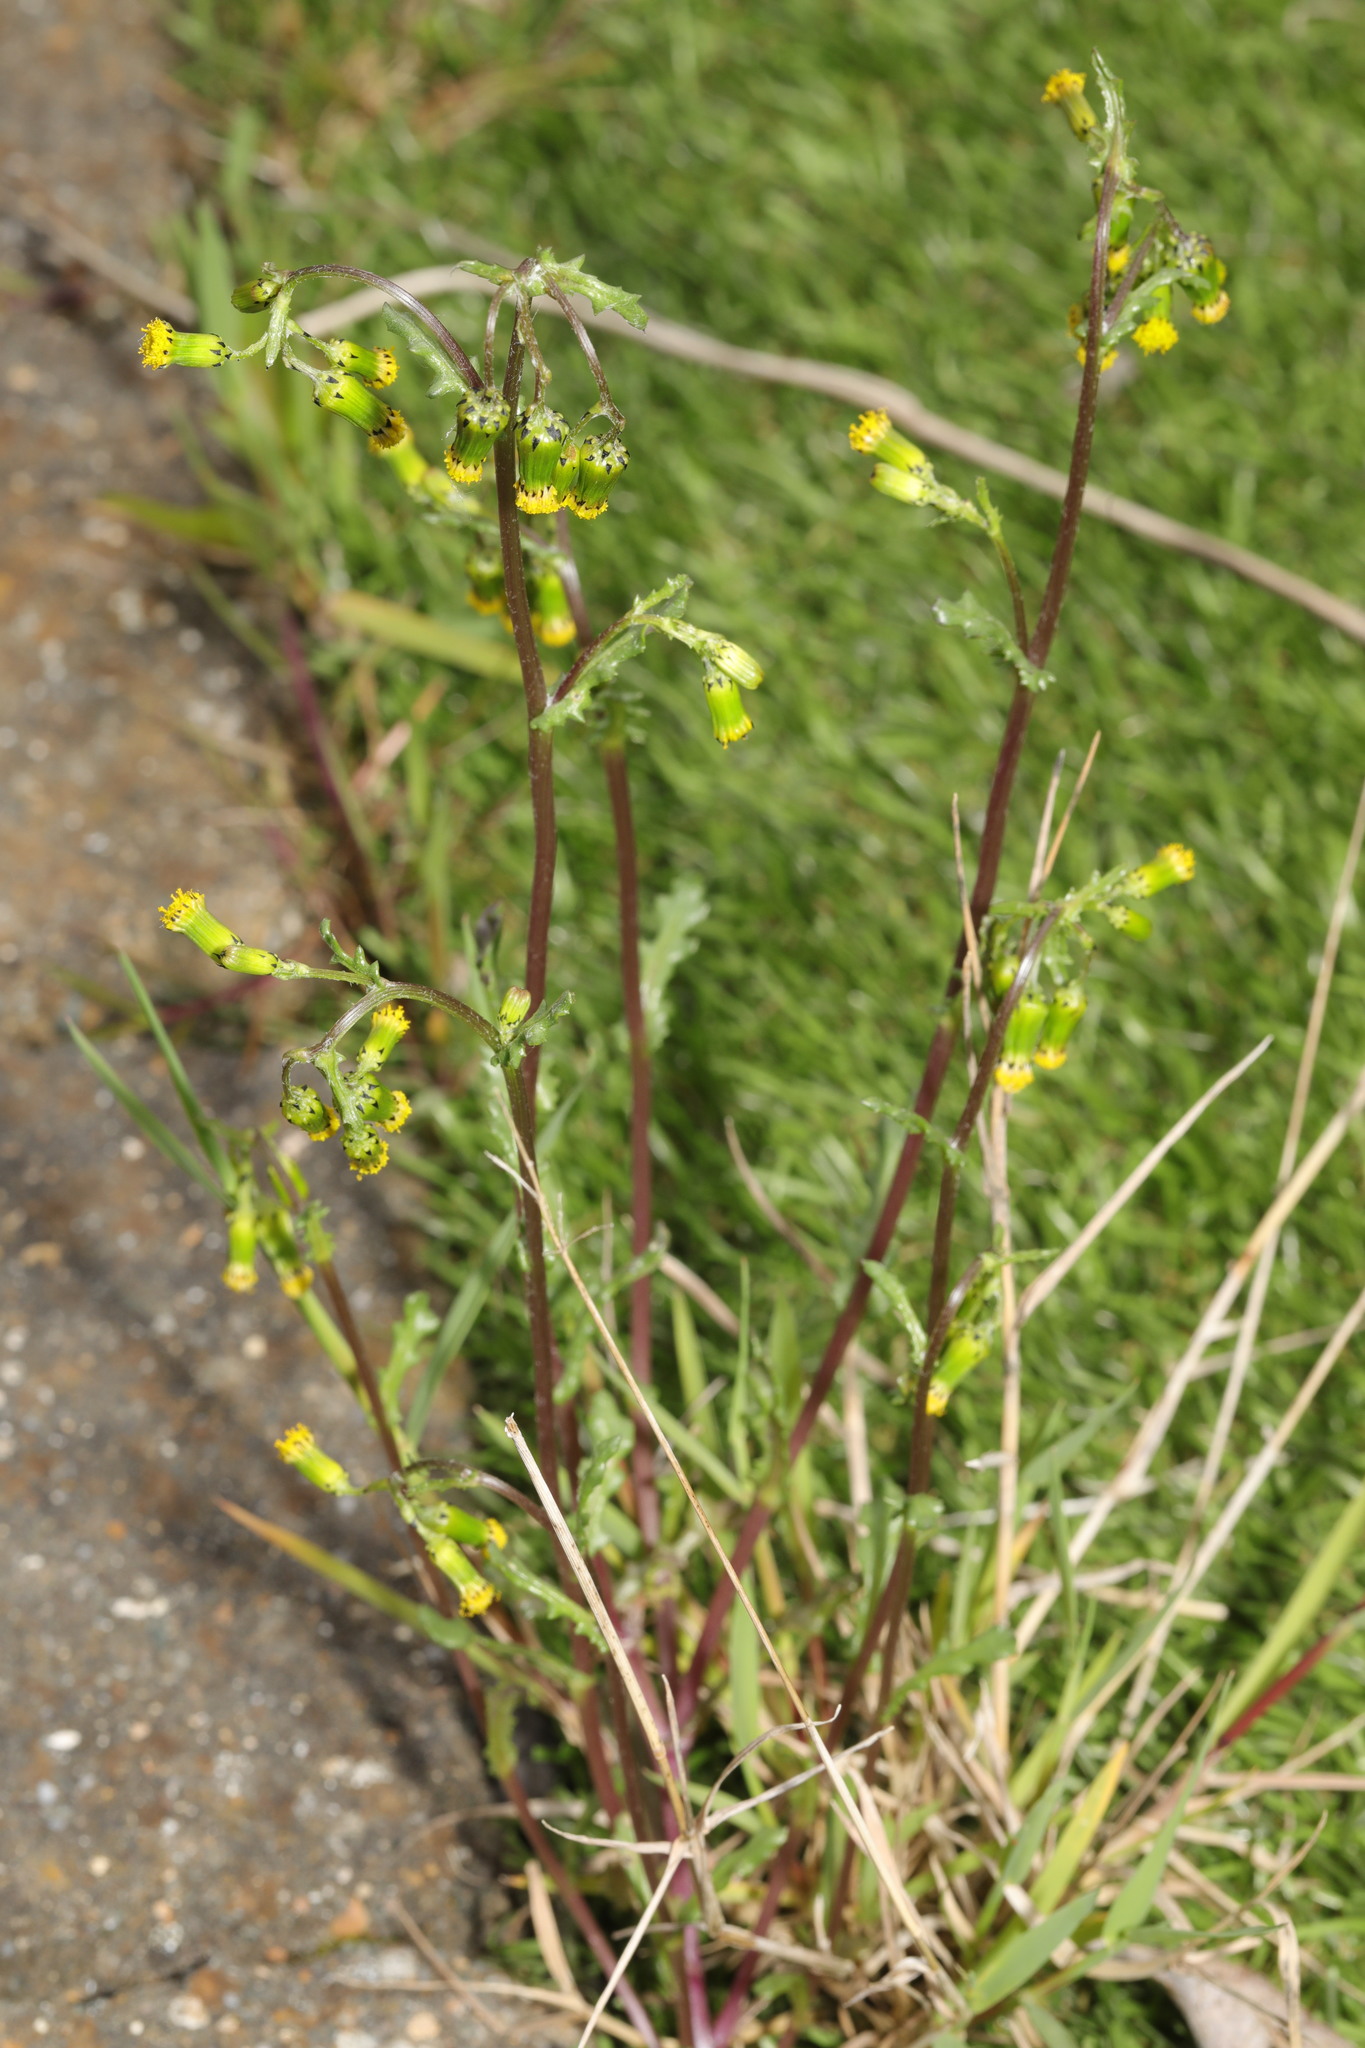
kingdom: Plantae
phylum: Tracheophyta
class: Magnoliopsida
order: Asterales
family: Asteraceae
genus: Senecio
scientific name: Senecio vulgaris
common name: Old-man-in-the-spring
